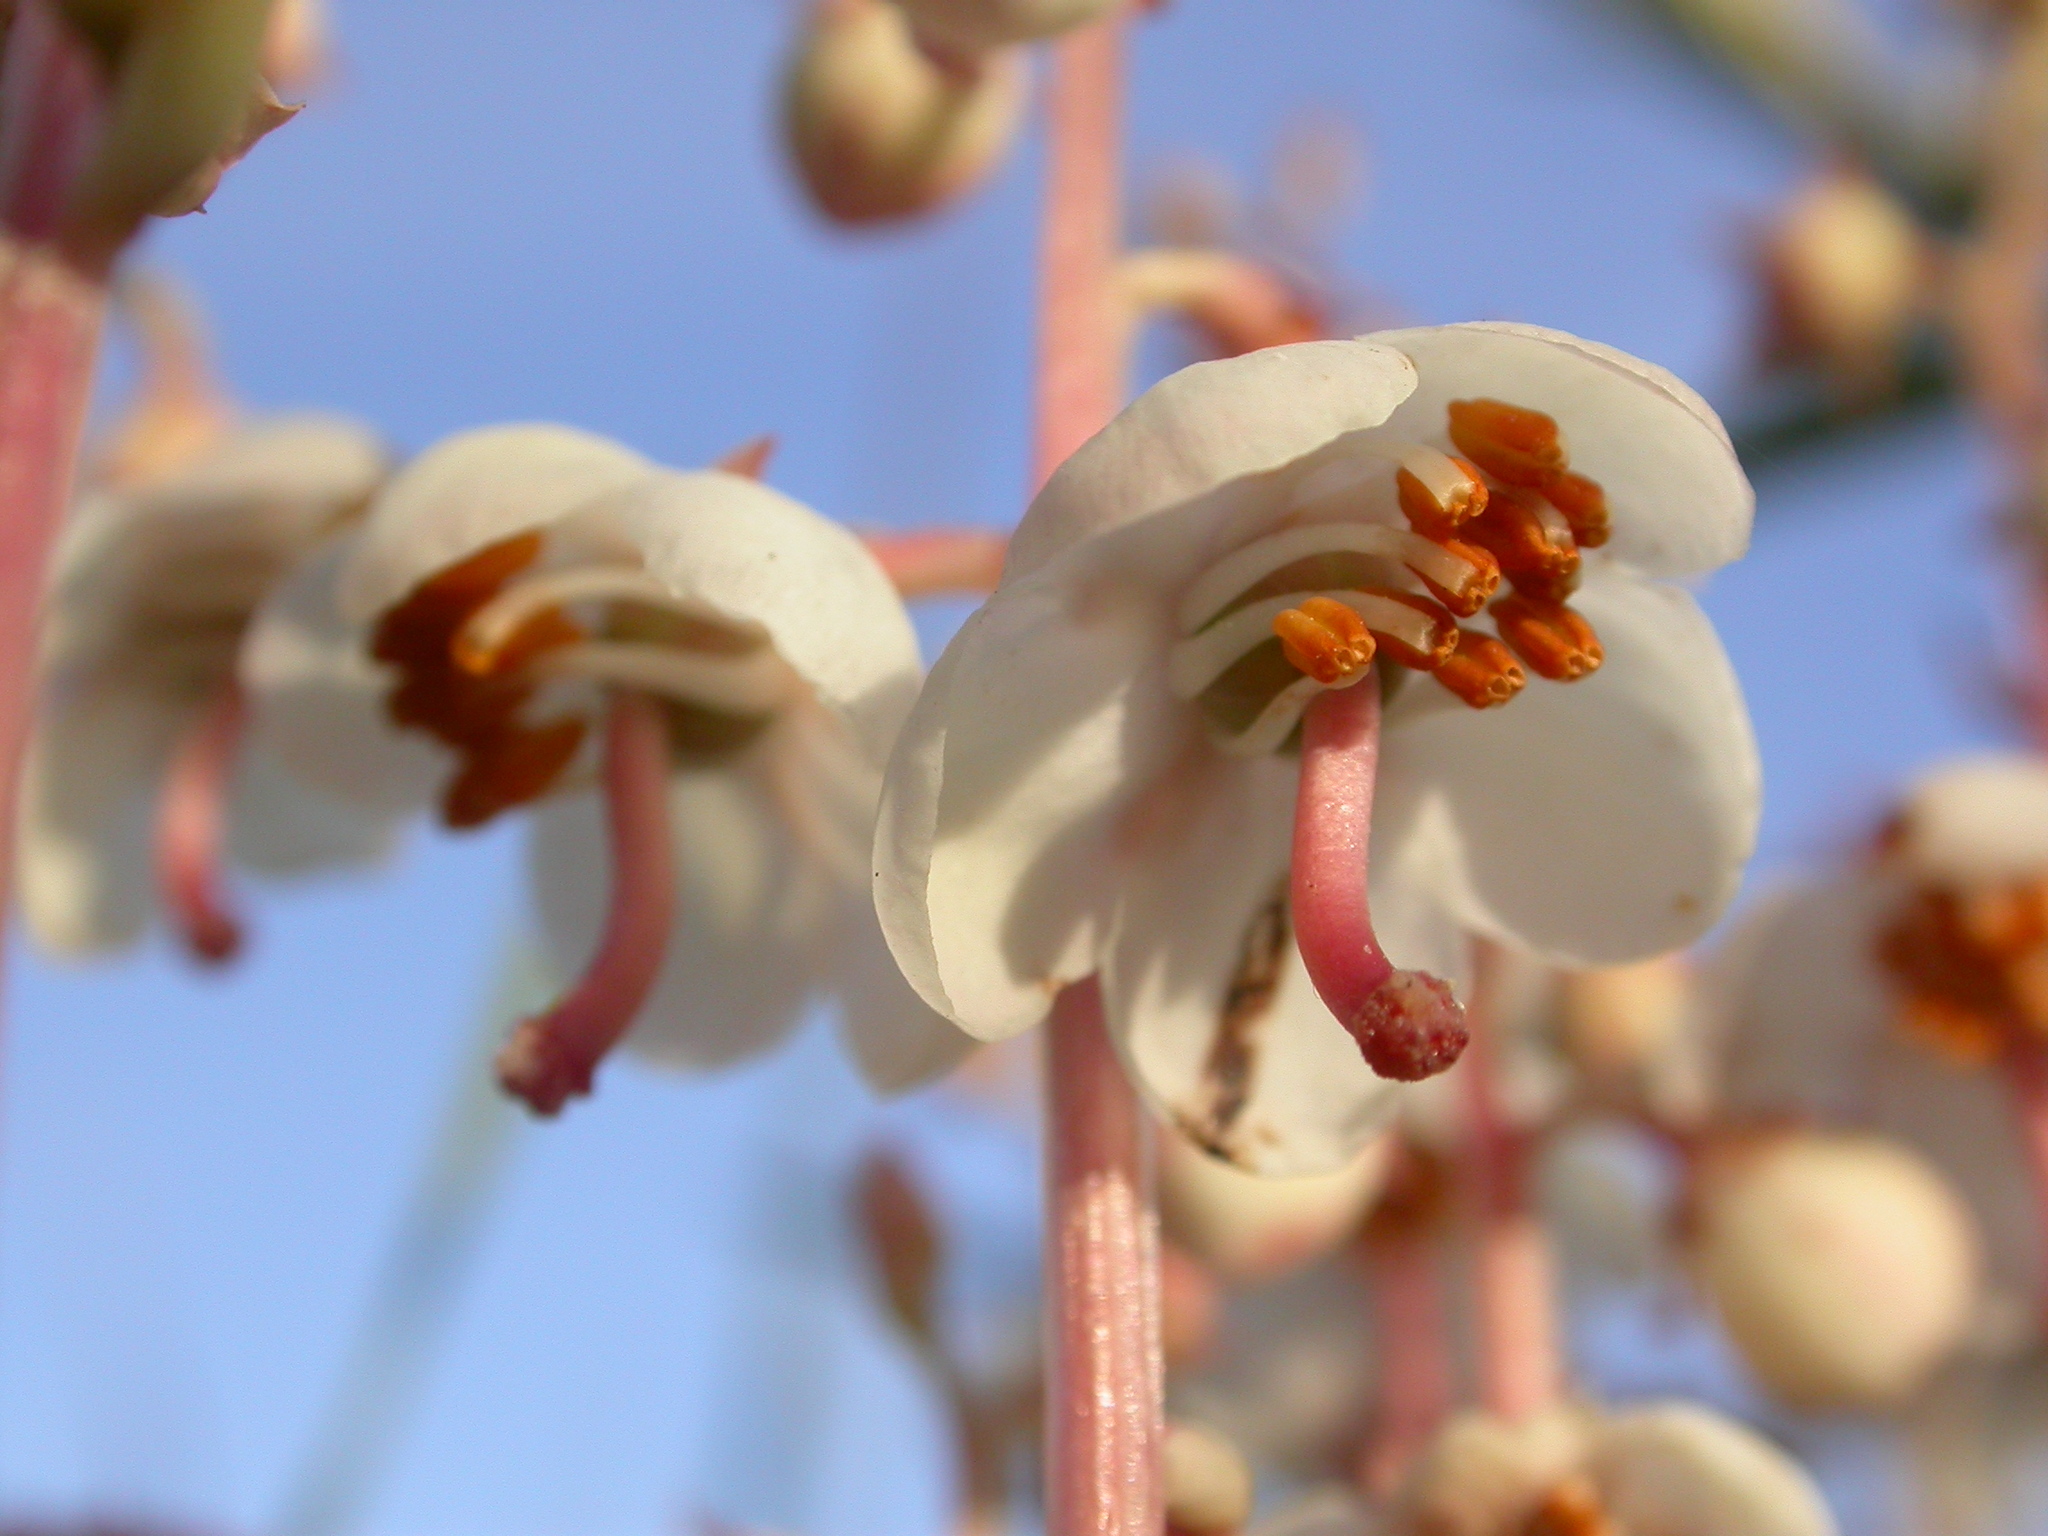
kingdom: Plantae
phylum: Tracheophyta
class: Magnoliopsida
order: Ericales
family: Ericaceae
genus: Pyrola
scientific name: Pyrola rotundifolia
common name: Round-leaved wintergreen
